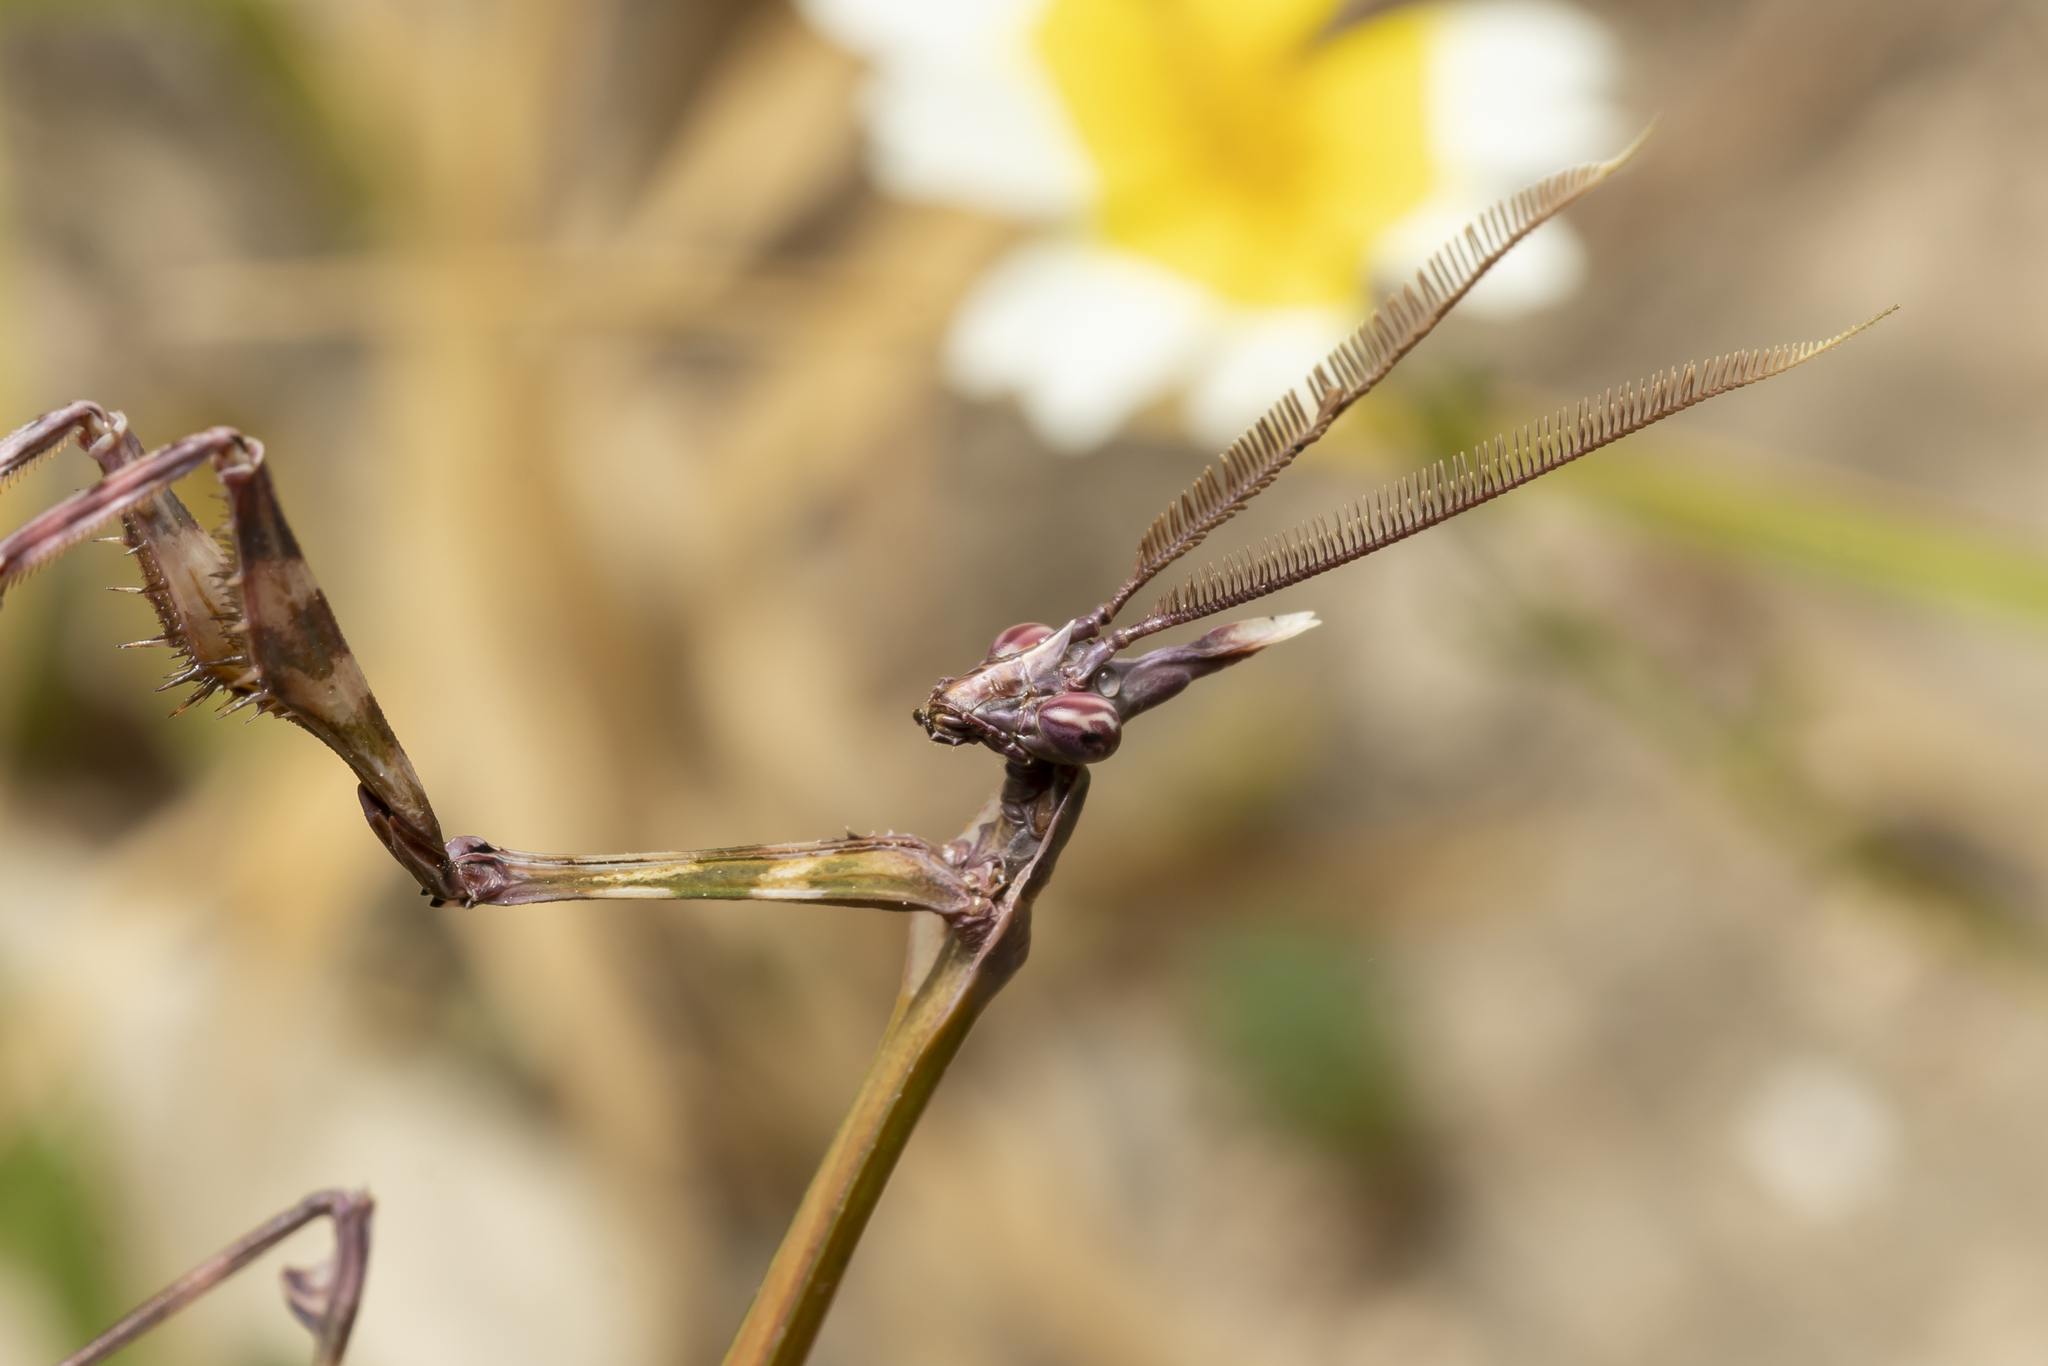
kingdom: Animalia
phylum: Arthropoda
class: Insecta
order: Mantodea
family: Empusidae
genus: Empusa
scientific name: Empusa fasciata
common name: Devil's mare
